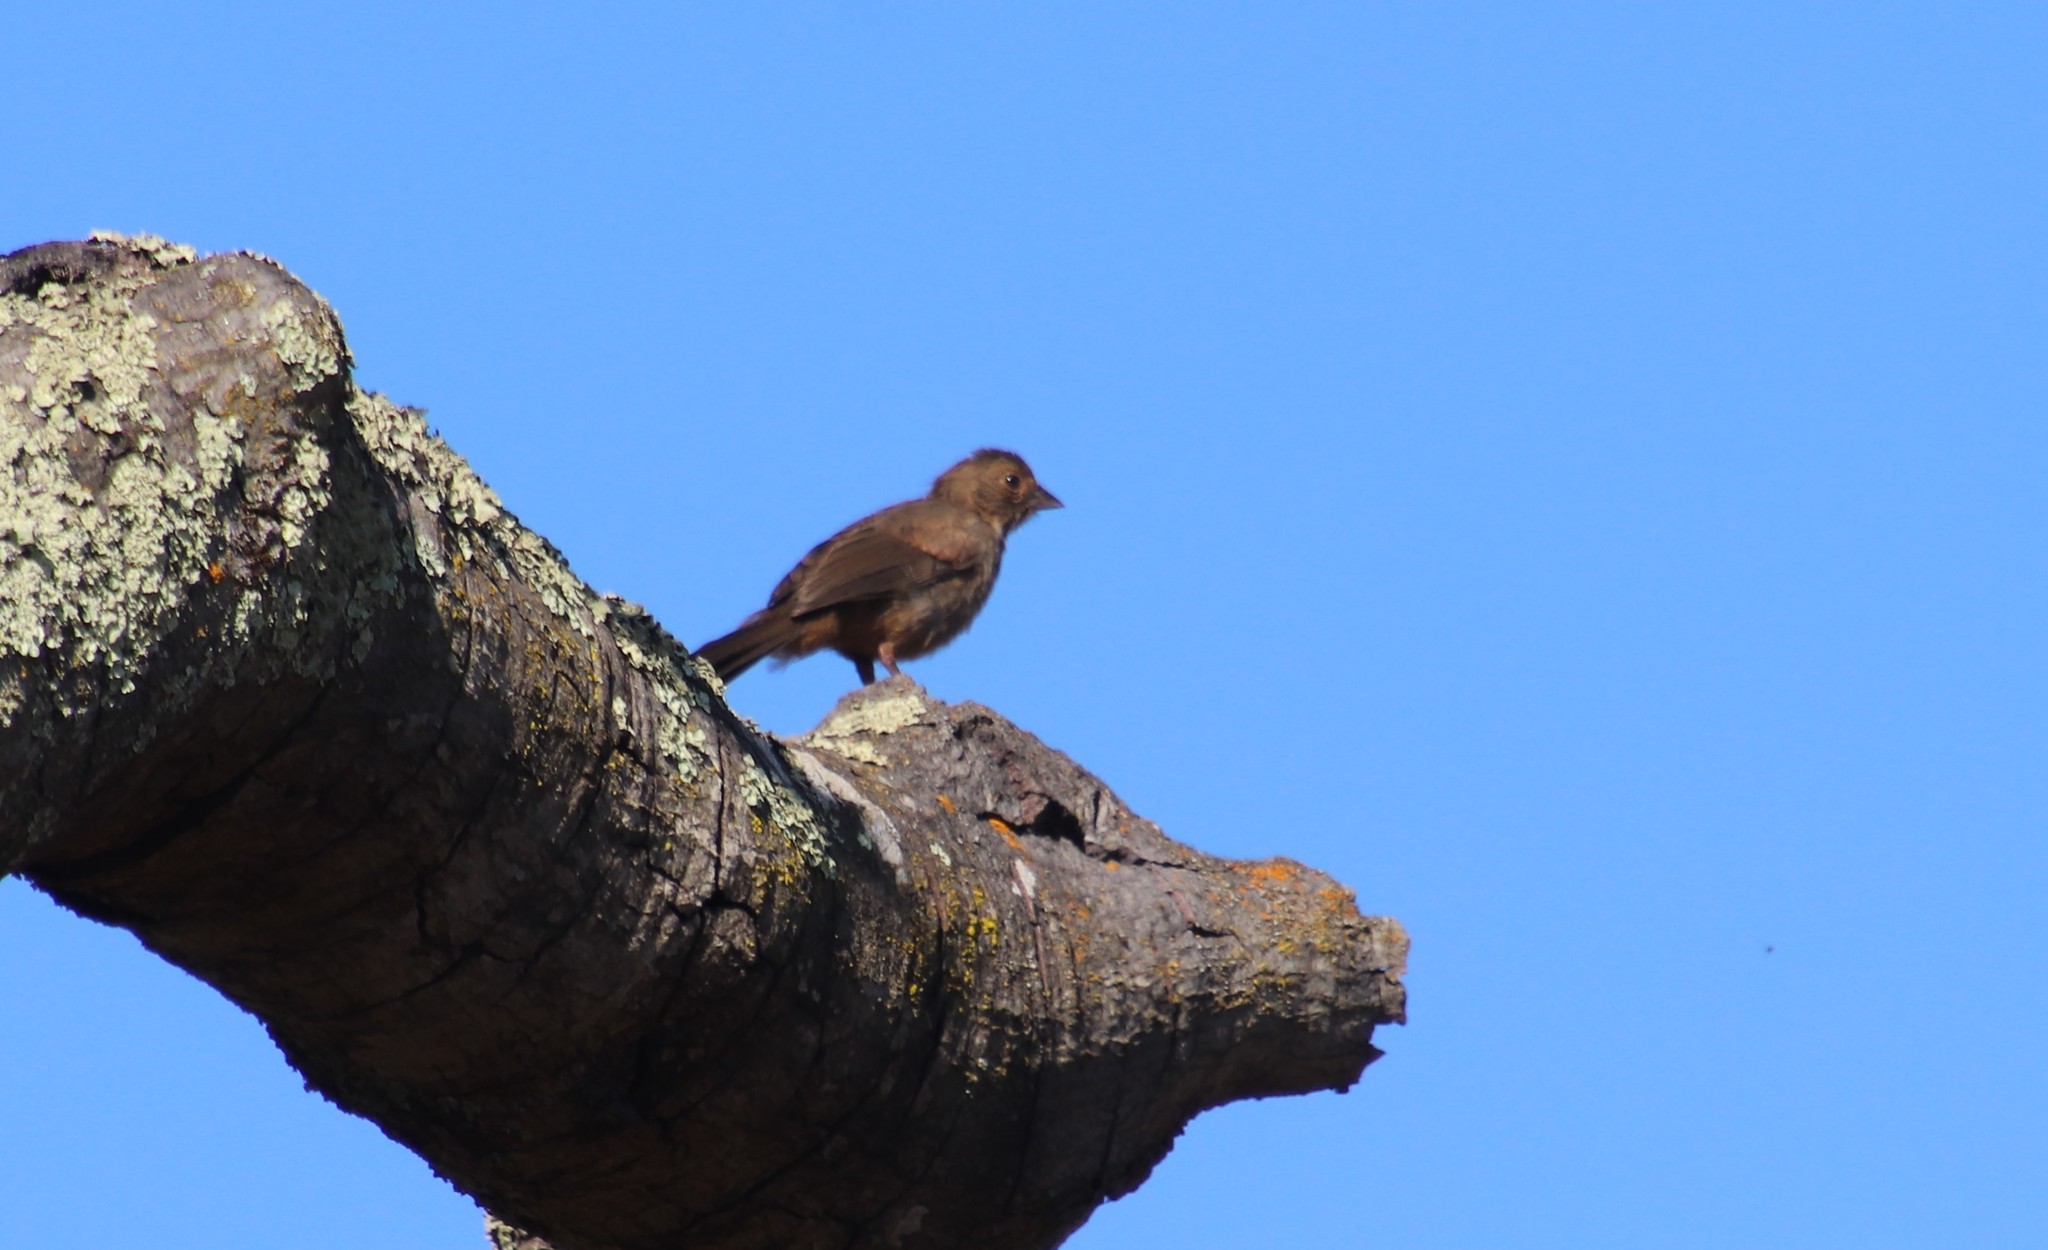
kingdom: Animalia
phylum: Chordata
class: Aves
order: Passeriformes
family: Passerellidae
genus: Melozone
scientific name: Melozone crissalis
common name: California towhee
